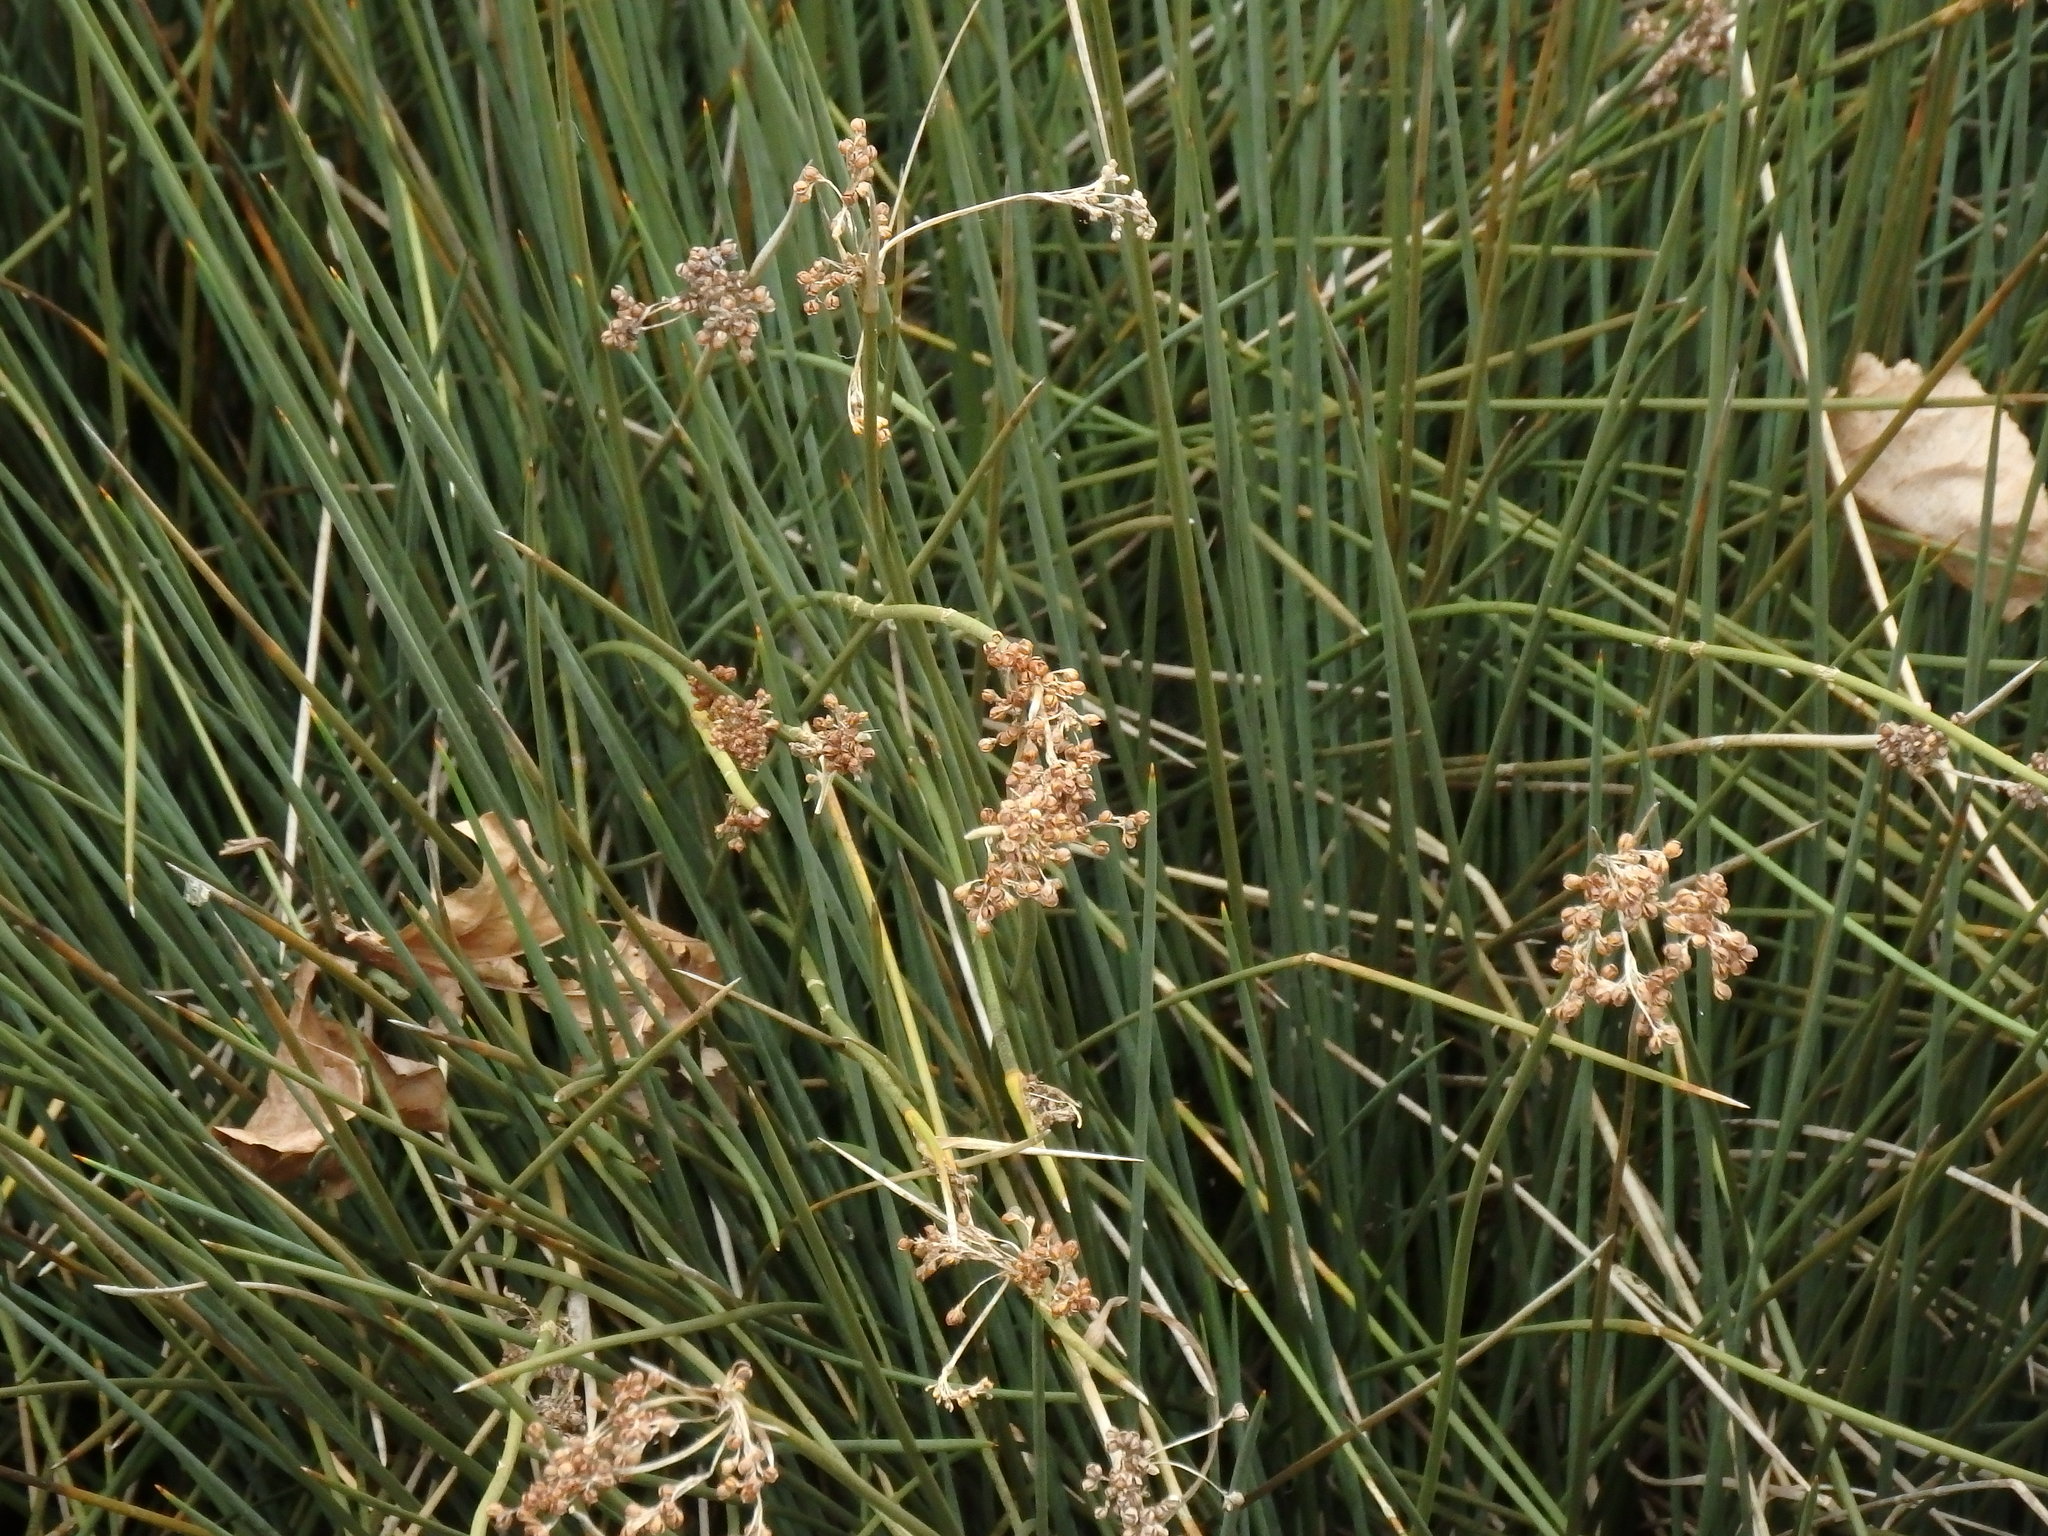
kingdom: Plantae
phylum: Tracheophyta
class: Liliopsida
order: Poales
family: Juncaceae
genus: Juncus
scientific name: Juncus acutus
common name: Sharp rush
